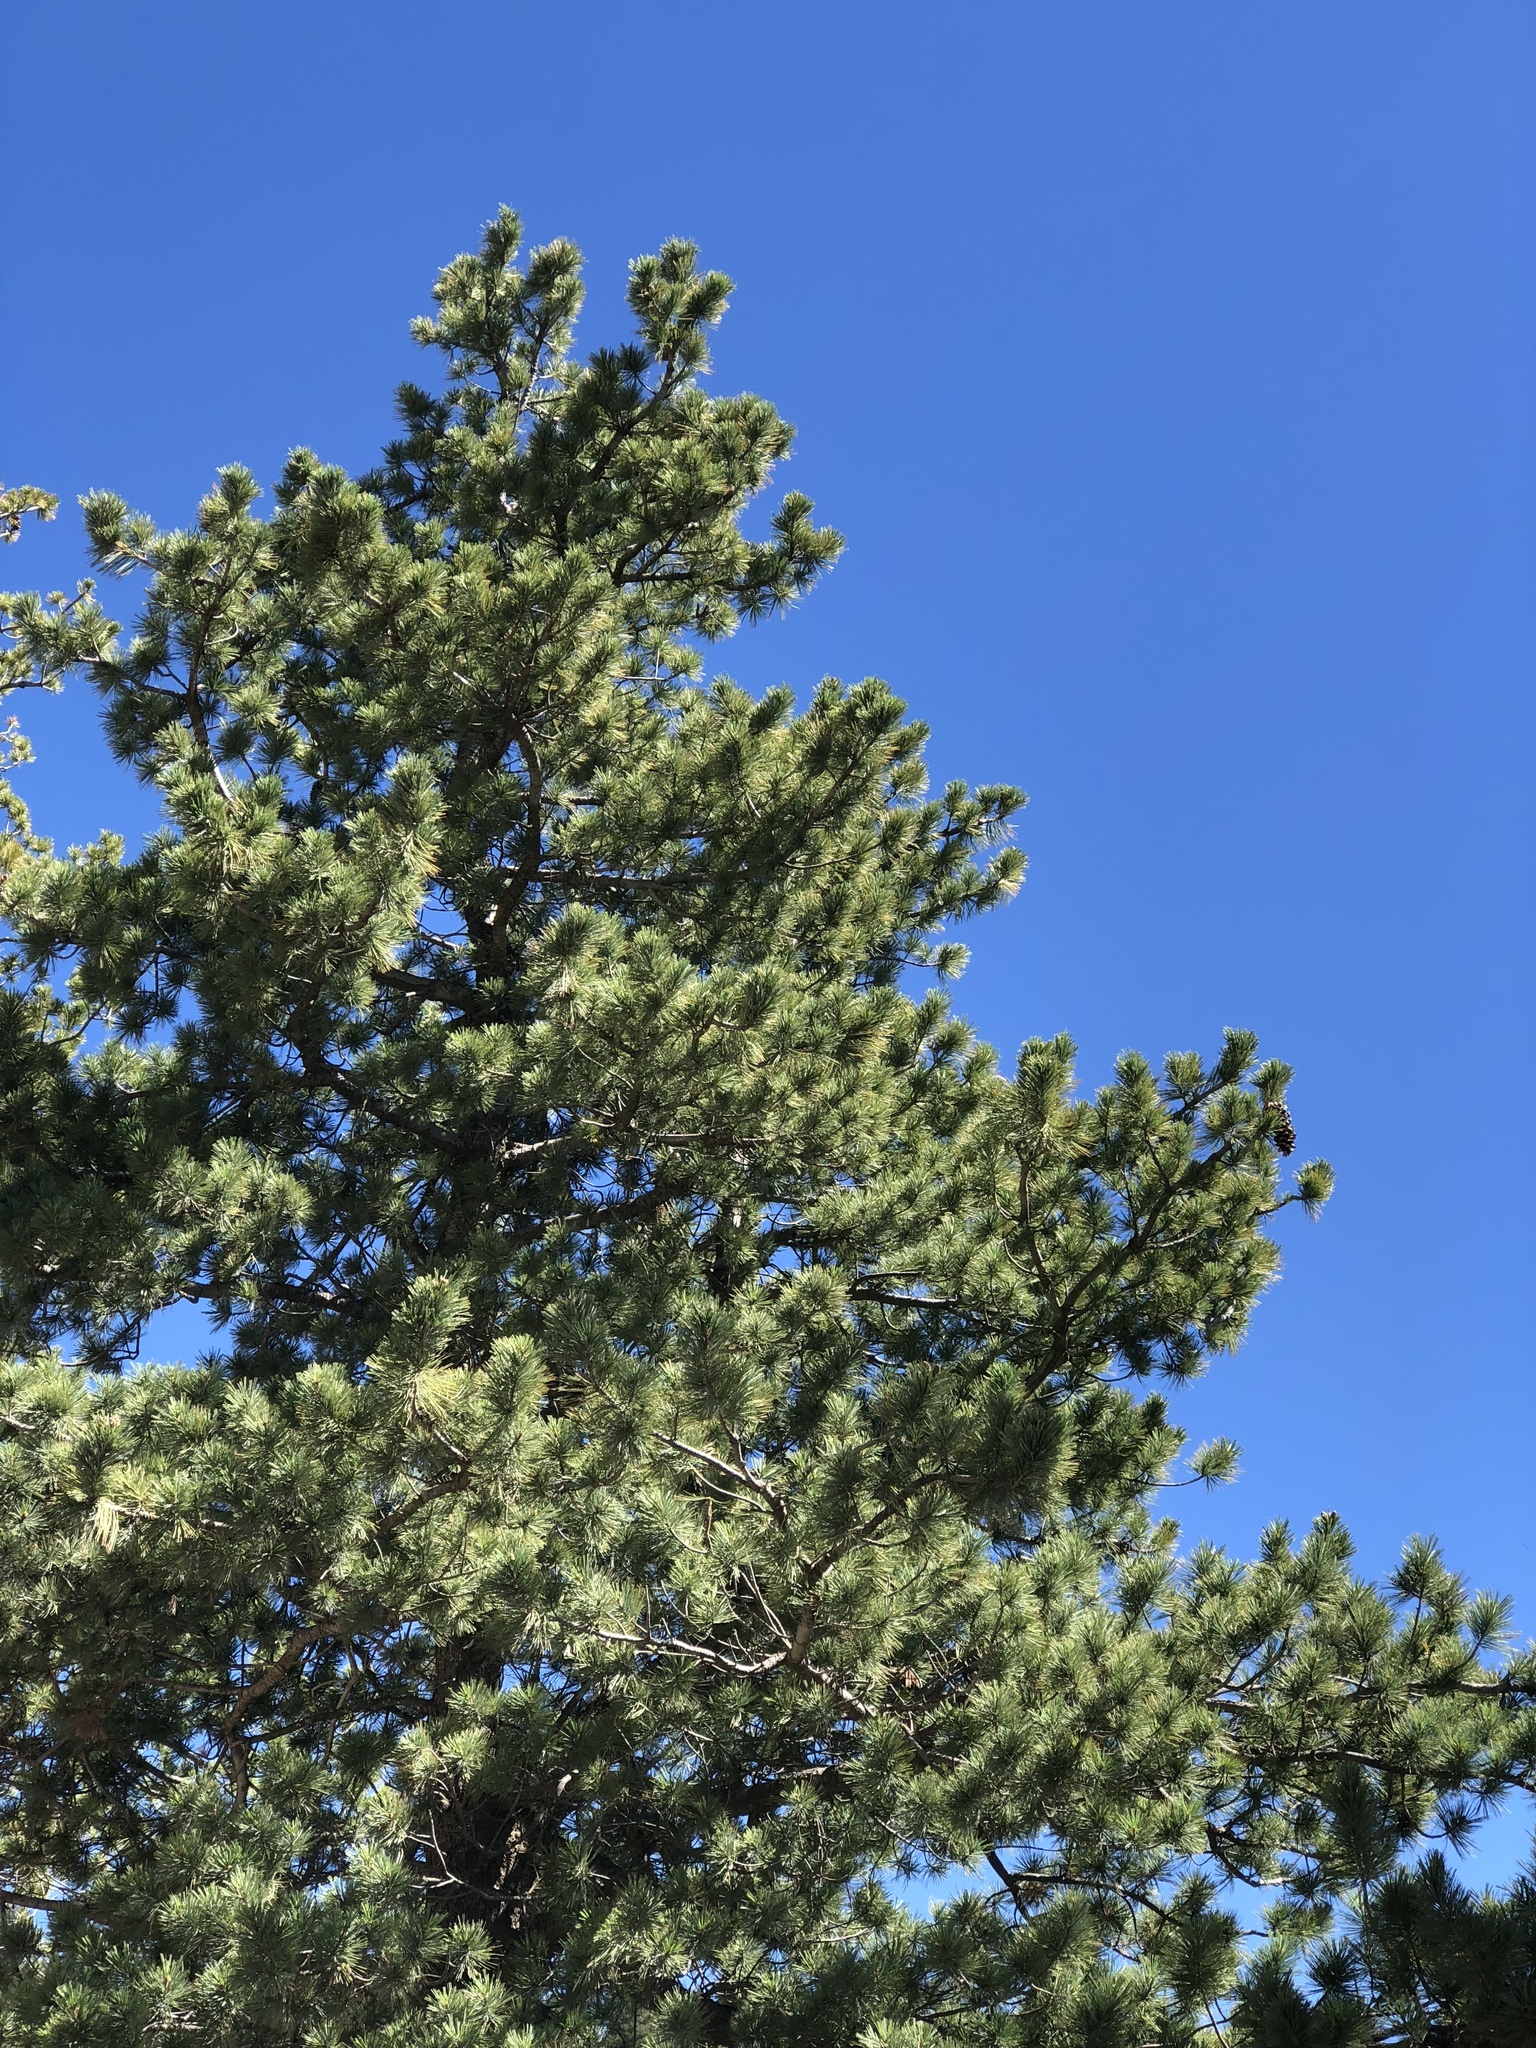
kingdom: Plantae
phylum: Tracheophyta
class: Pinopsida
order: Pinales
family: Pinaceae
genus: Pinus
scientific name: Pinus strobiformis
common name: Southwestern white pine
